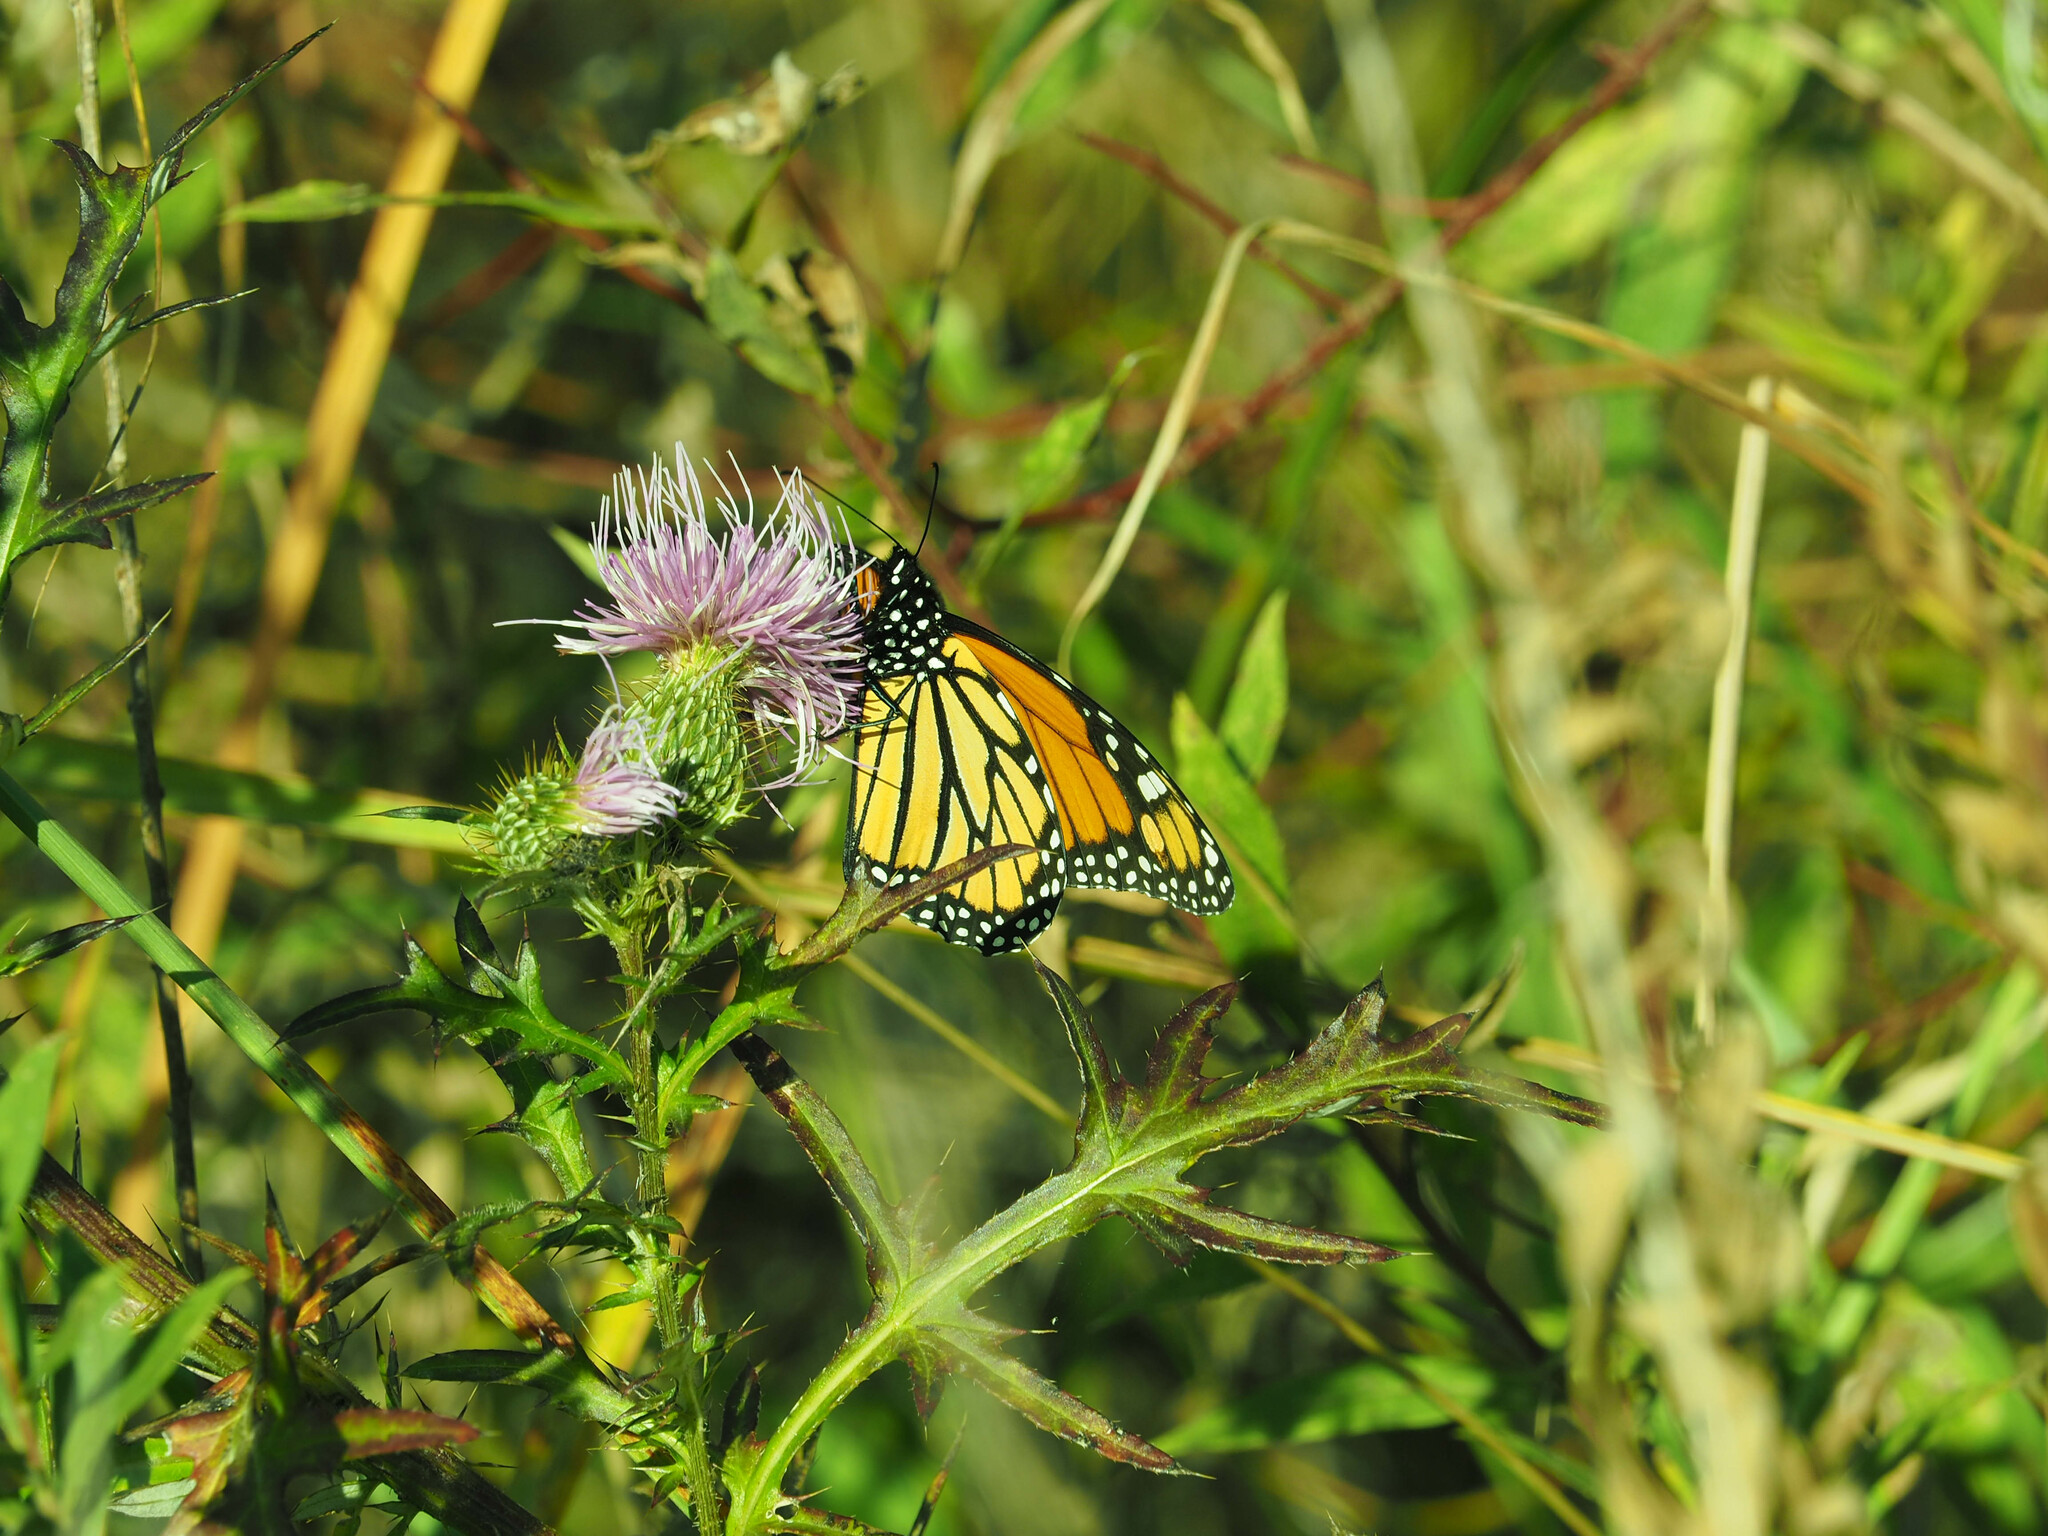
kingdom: Animalia
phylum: Arthropoda
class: Insecta
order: Lepidoptera
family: Nymphalidae
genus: Danaus
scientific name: Danaus plexippus
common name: Monarch
